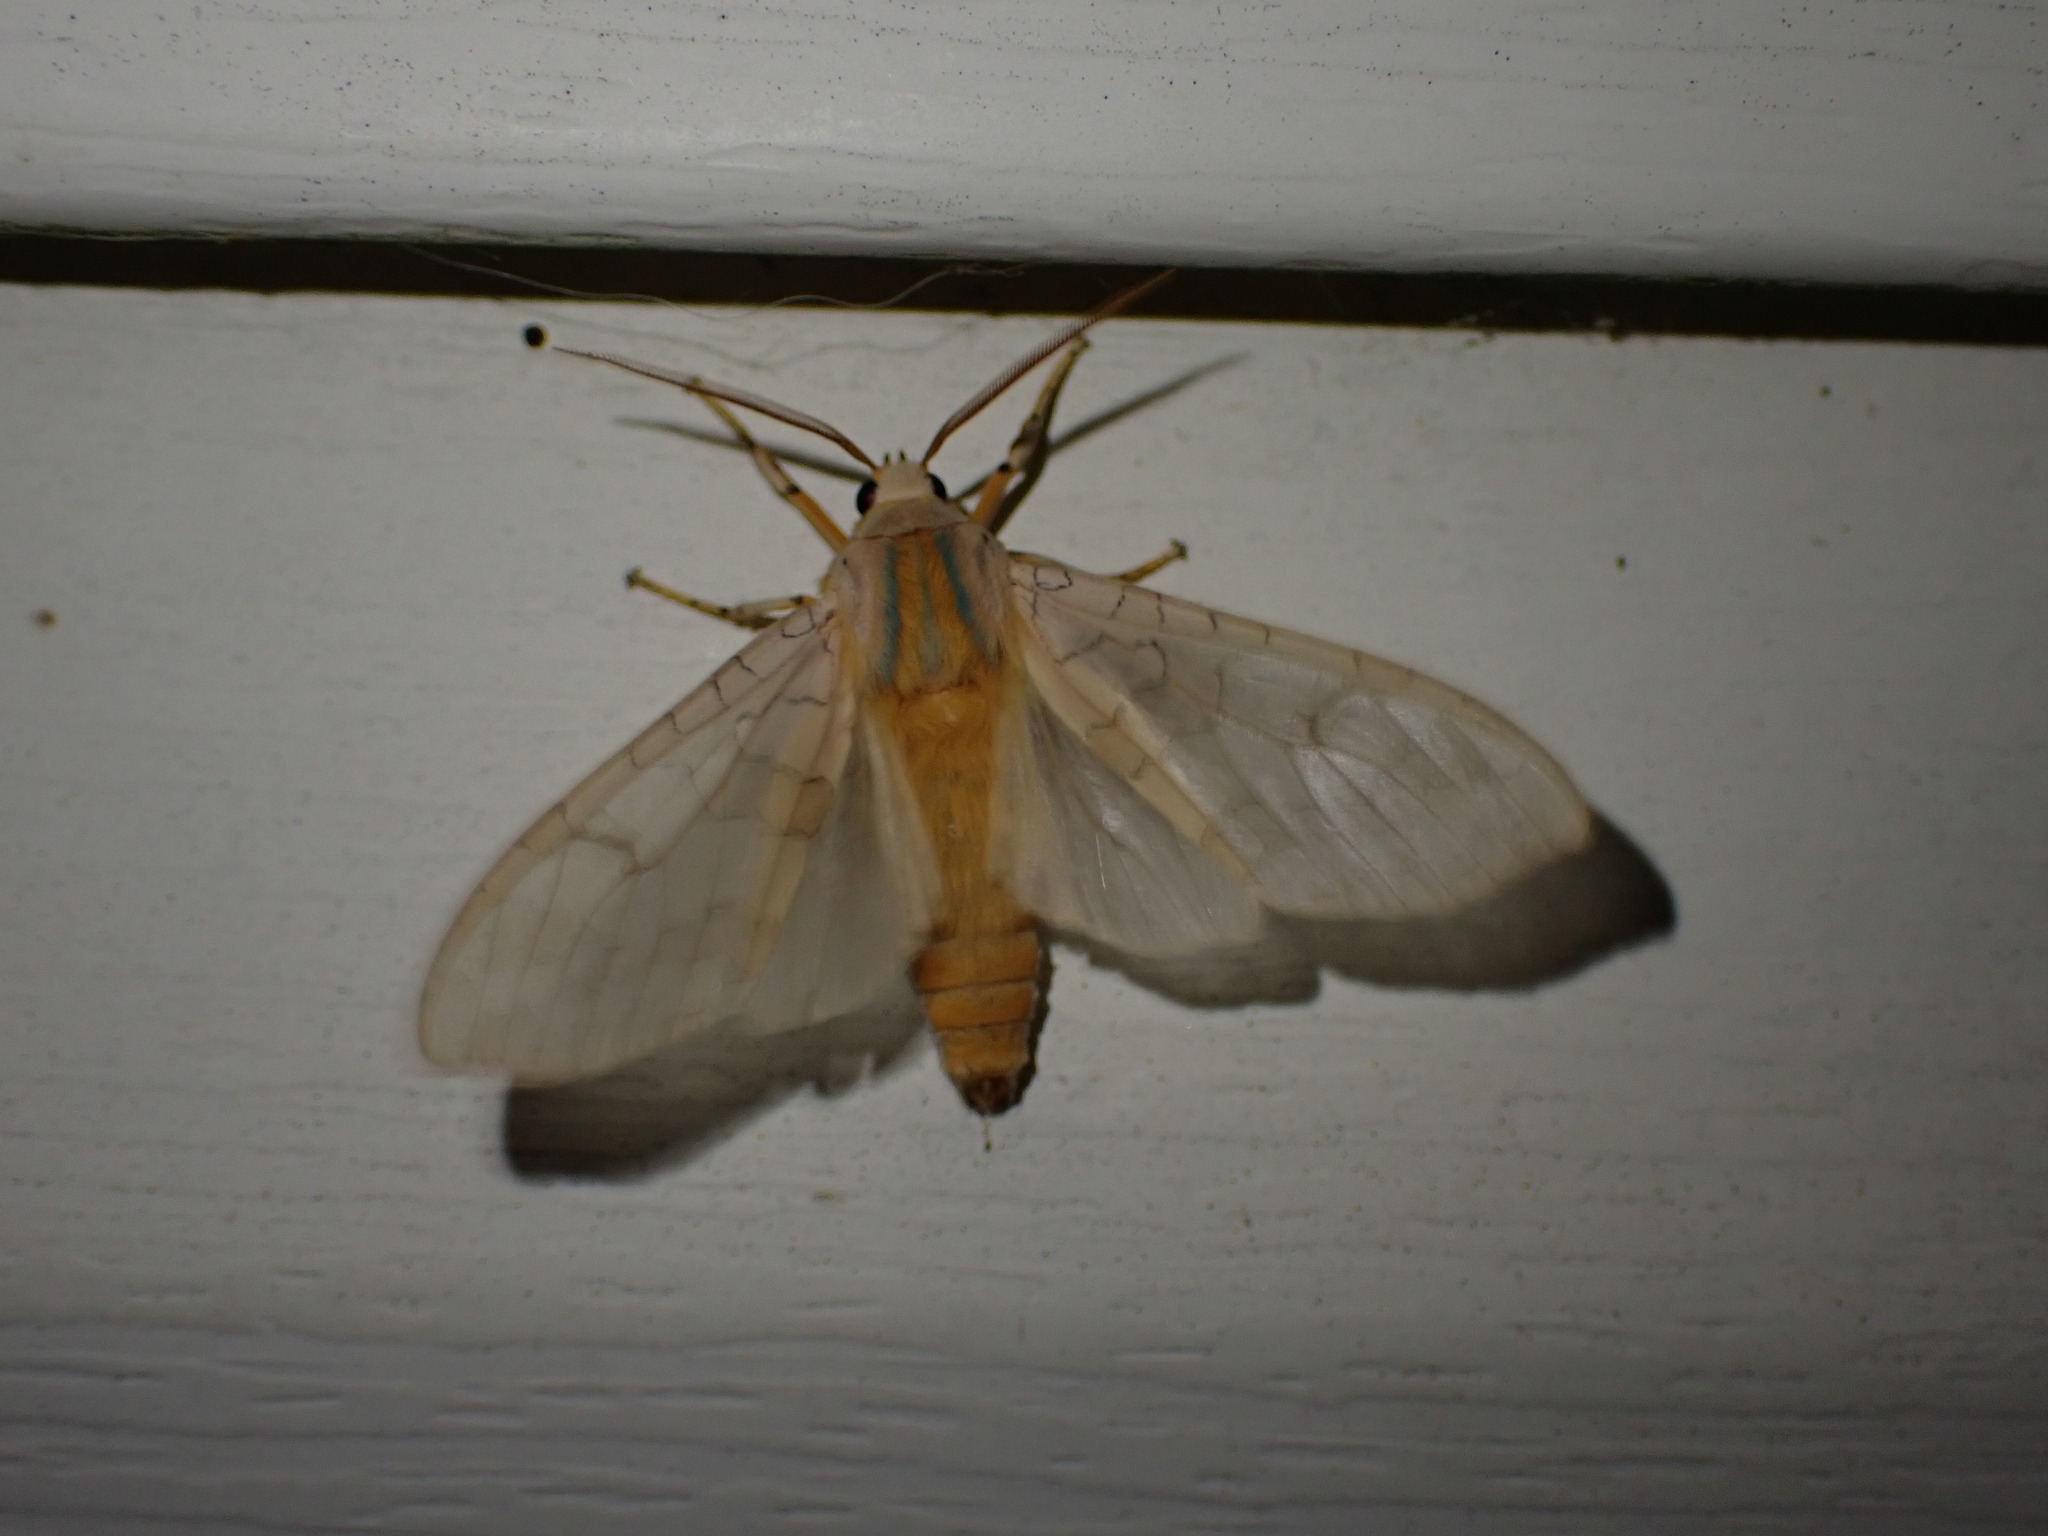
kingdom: Animalia
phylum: Arthropoda
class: Insecta
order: Lepidoptera
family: Erebidae
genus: Halysidota
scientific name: Halysidota tessellaris
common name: Banded tussock moth
